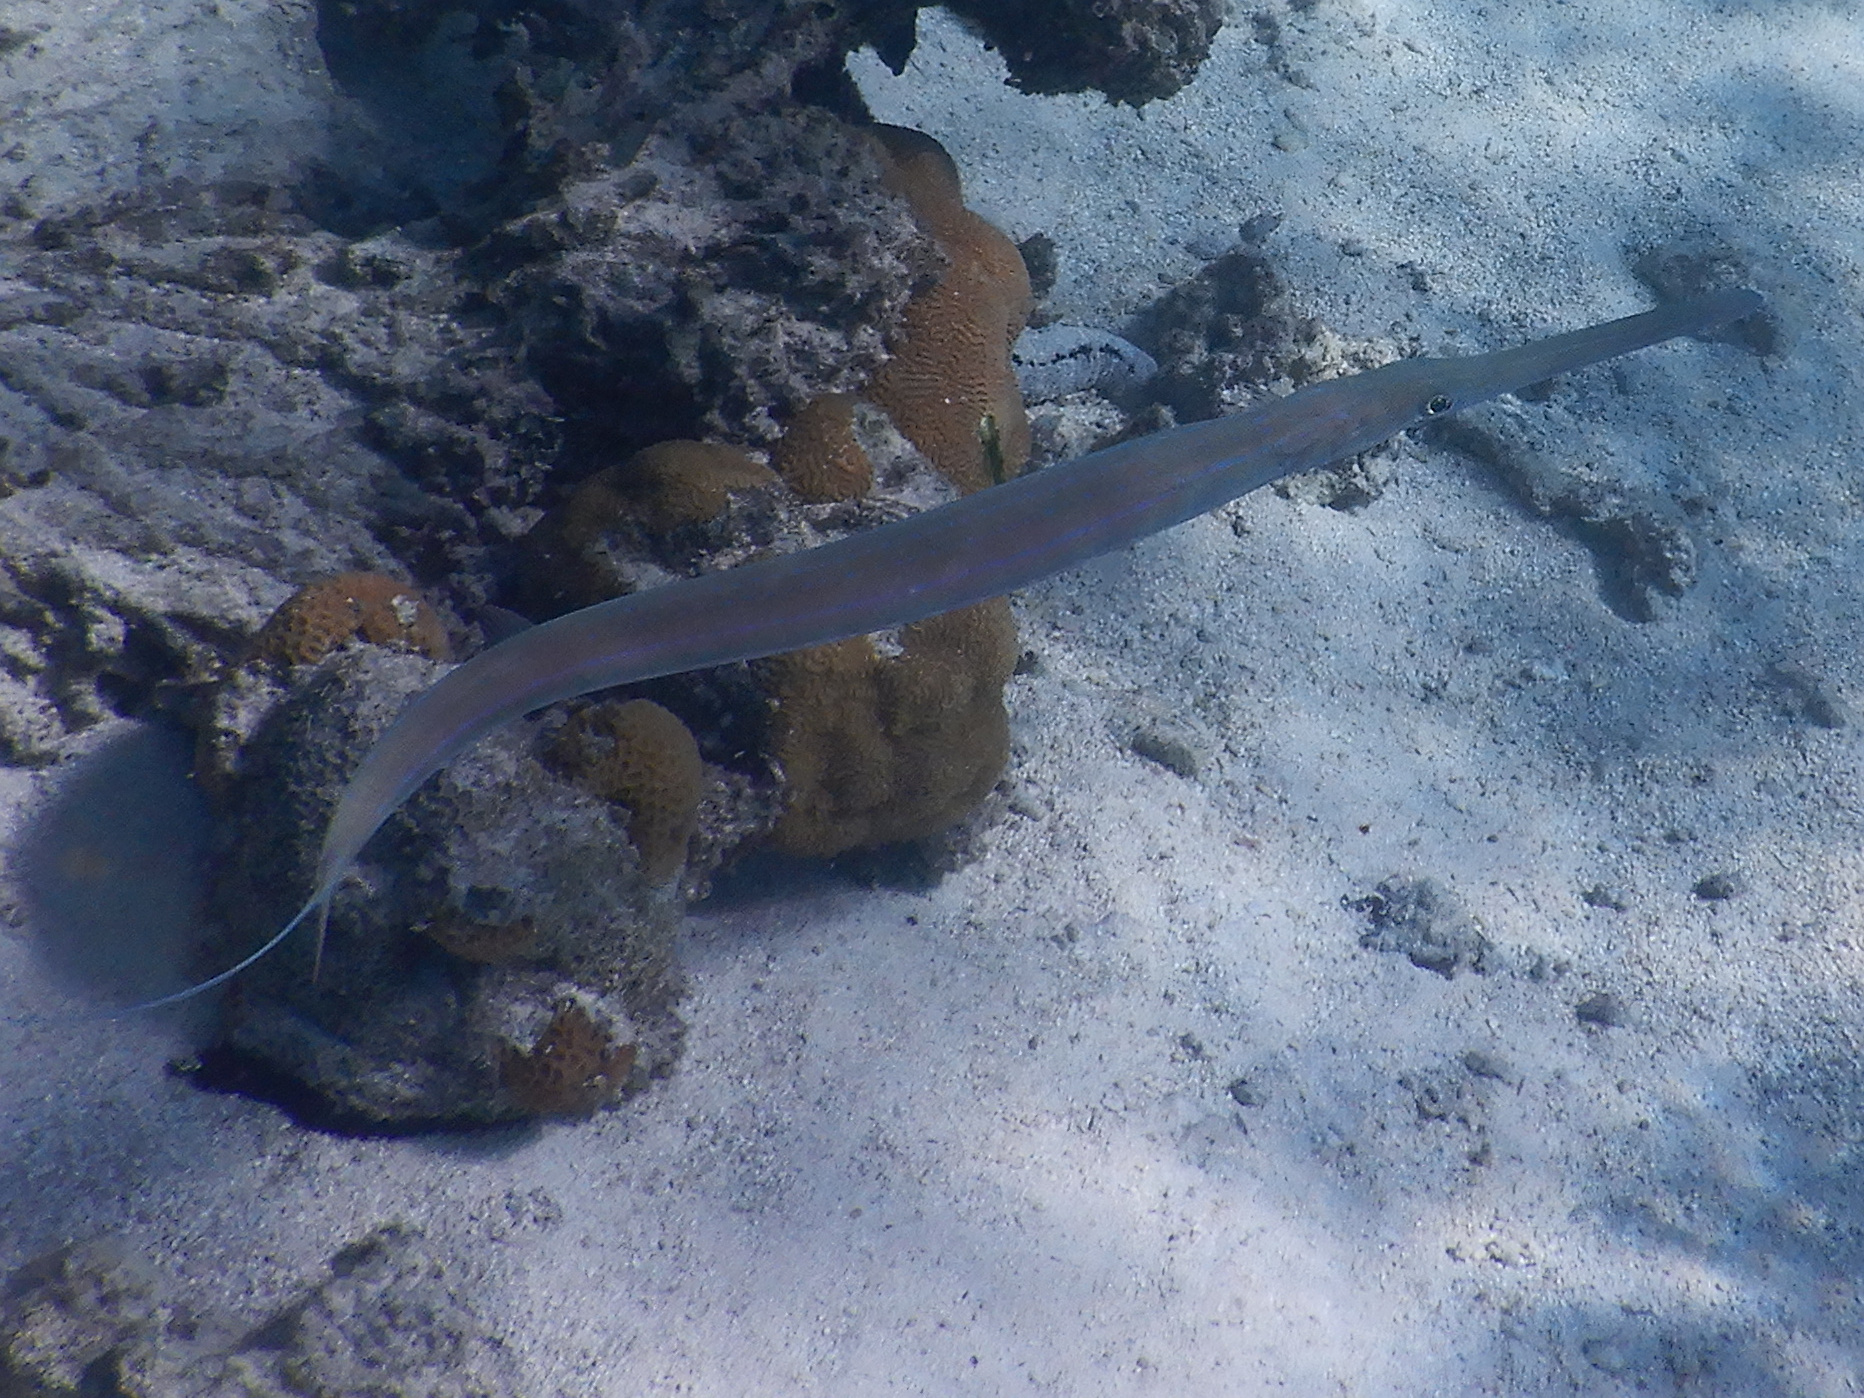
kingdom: Animalia
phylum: Chordata
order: Syngnathiformes
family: Fistulariidae
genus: Fistularia
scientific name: Fistularia commersonii
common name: Bluespotted cornetfish
